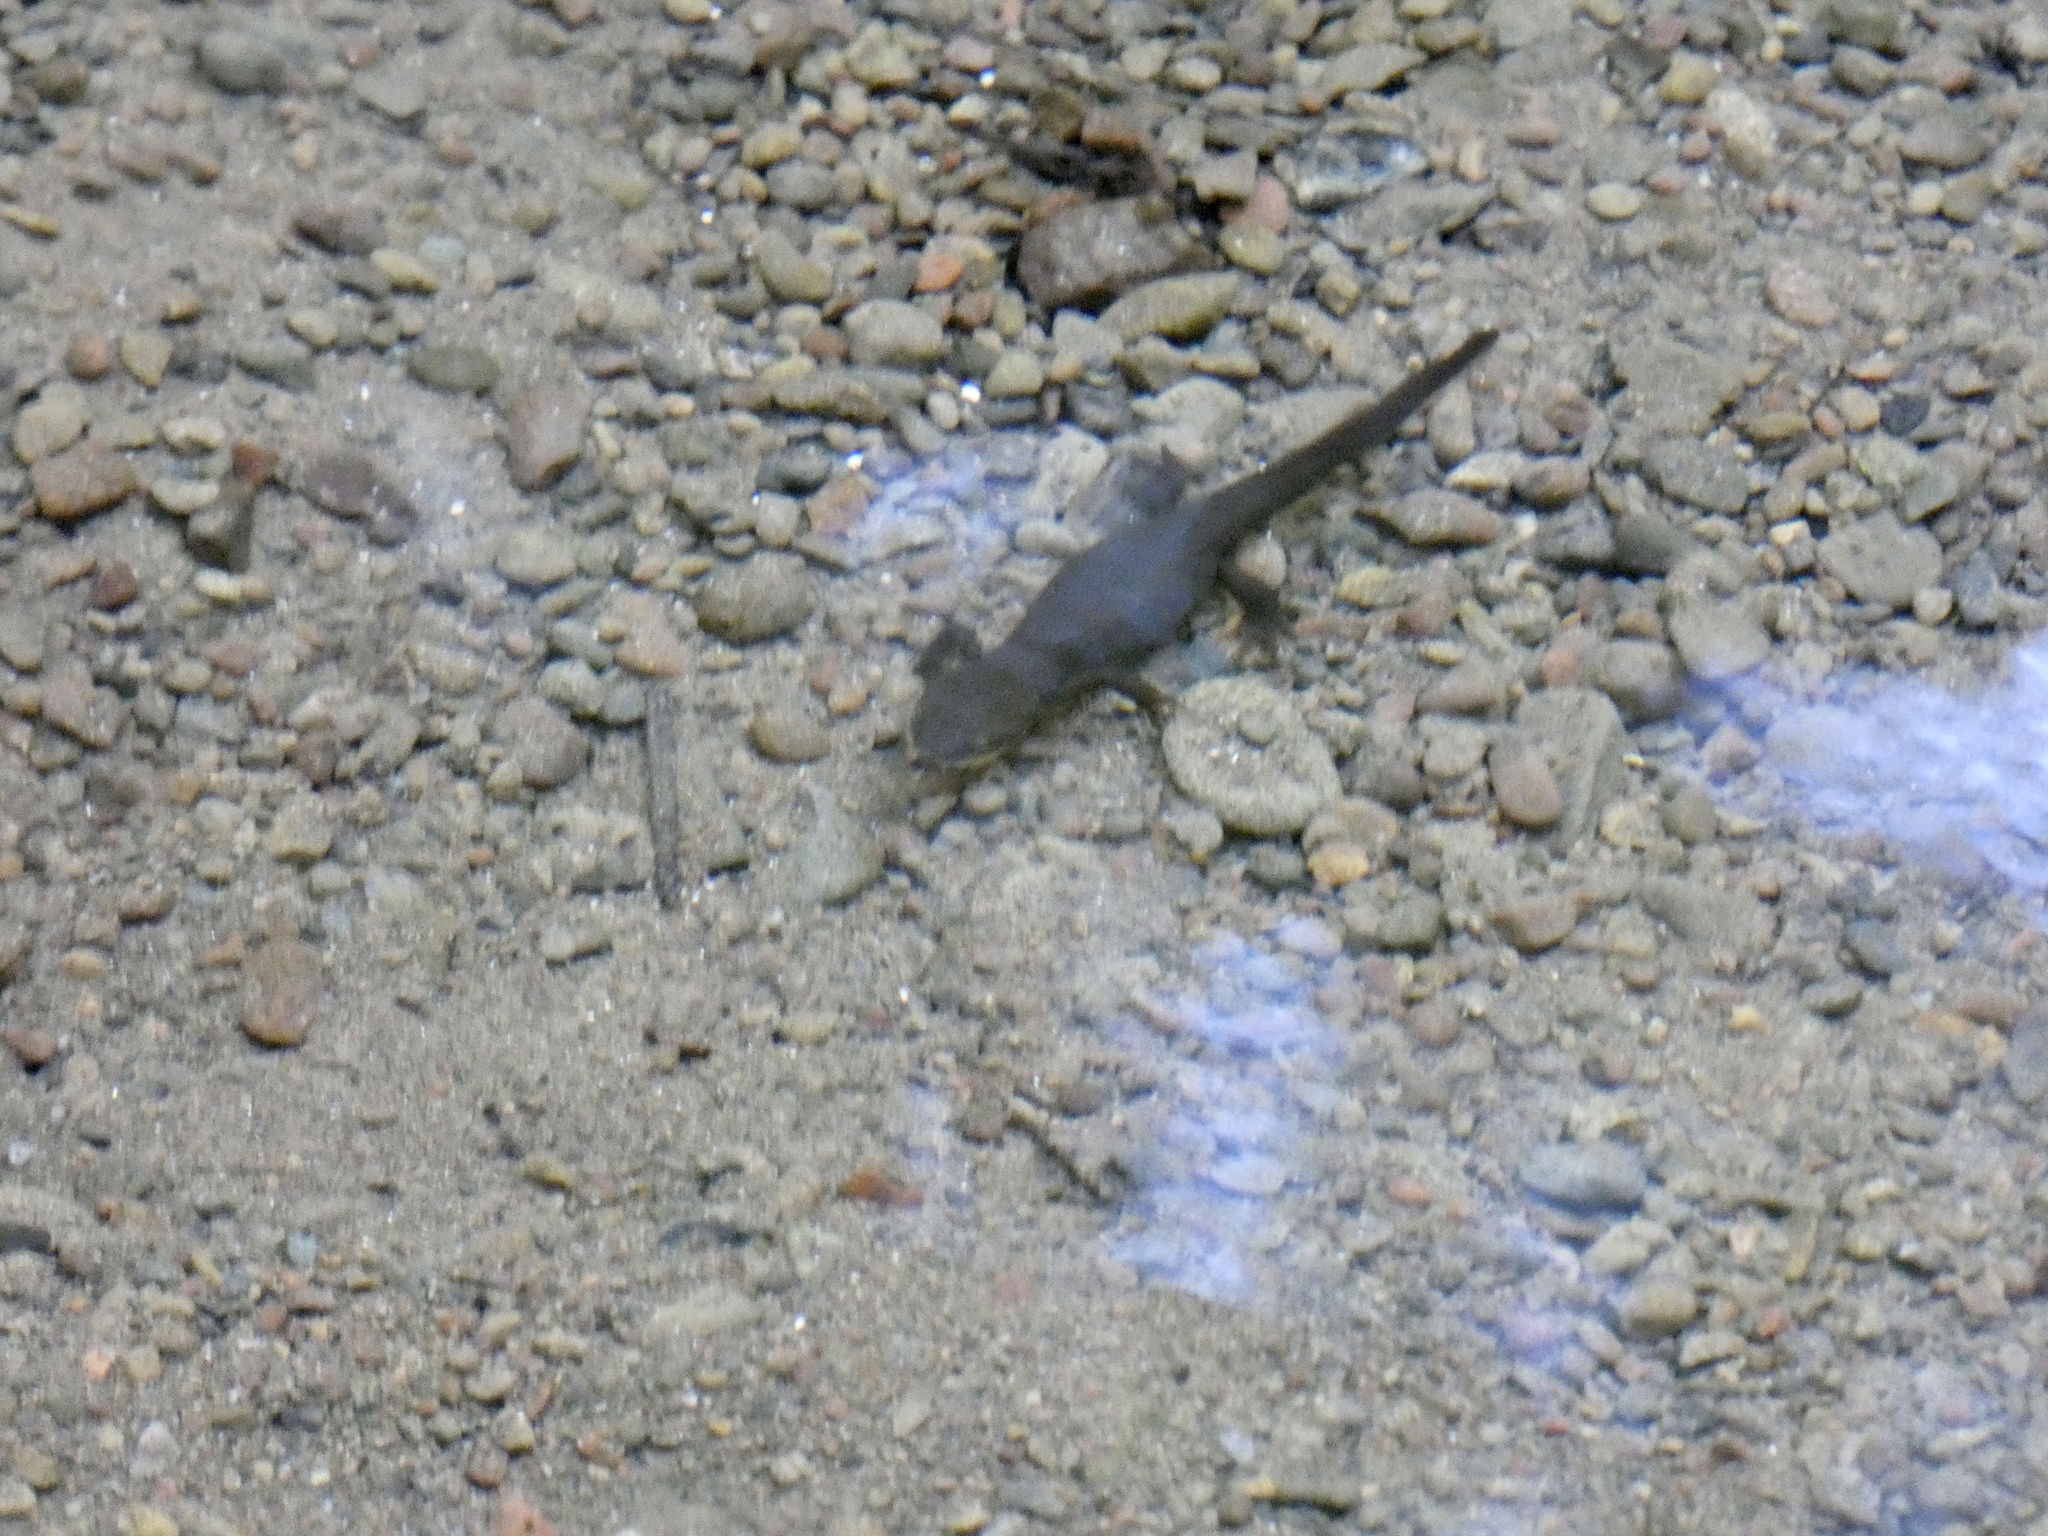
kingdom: Animalia
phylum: Chordata
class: Amphibia
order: Caudata
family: Salamandridae
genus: Taricha
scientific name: Taricha granulosa
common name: Roughskin newt
